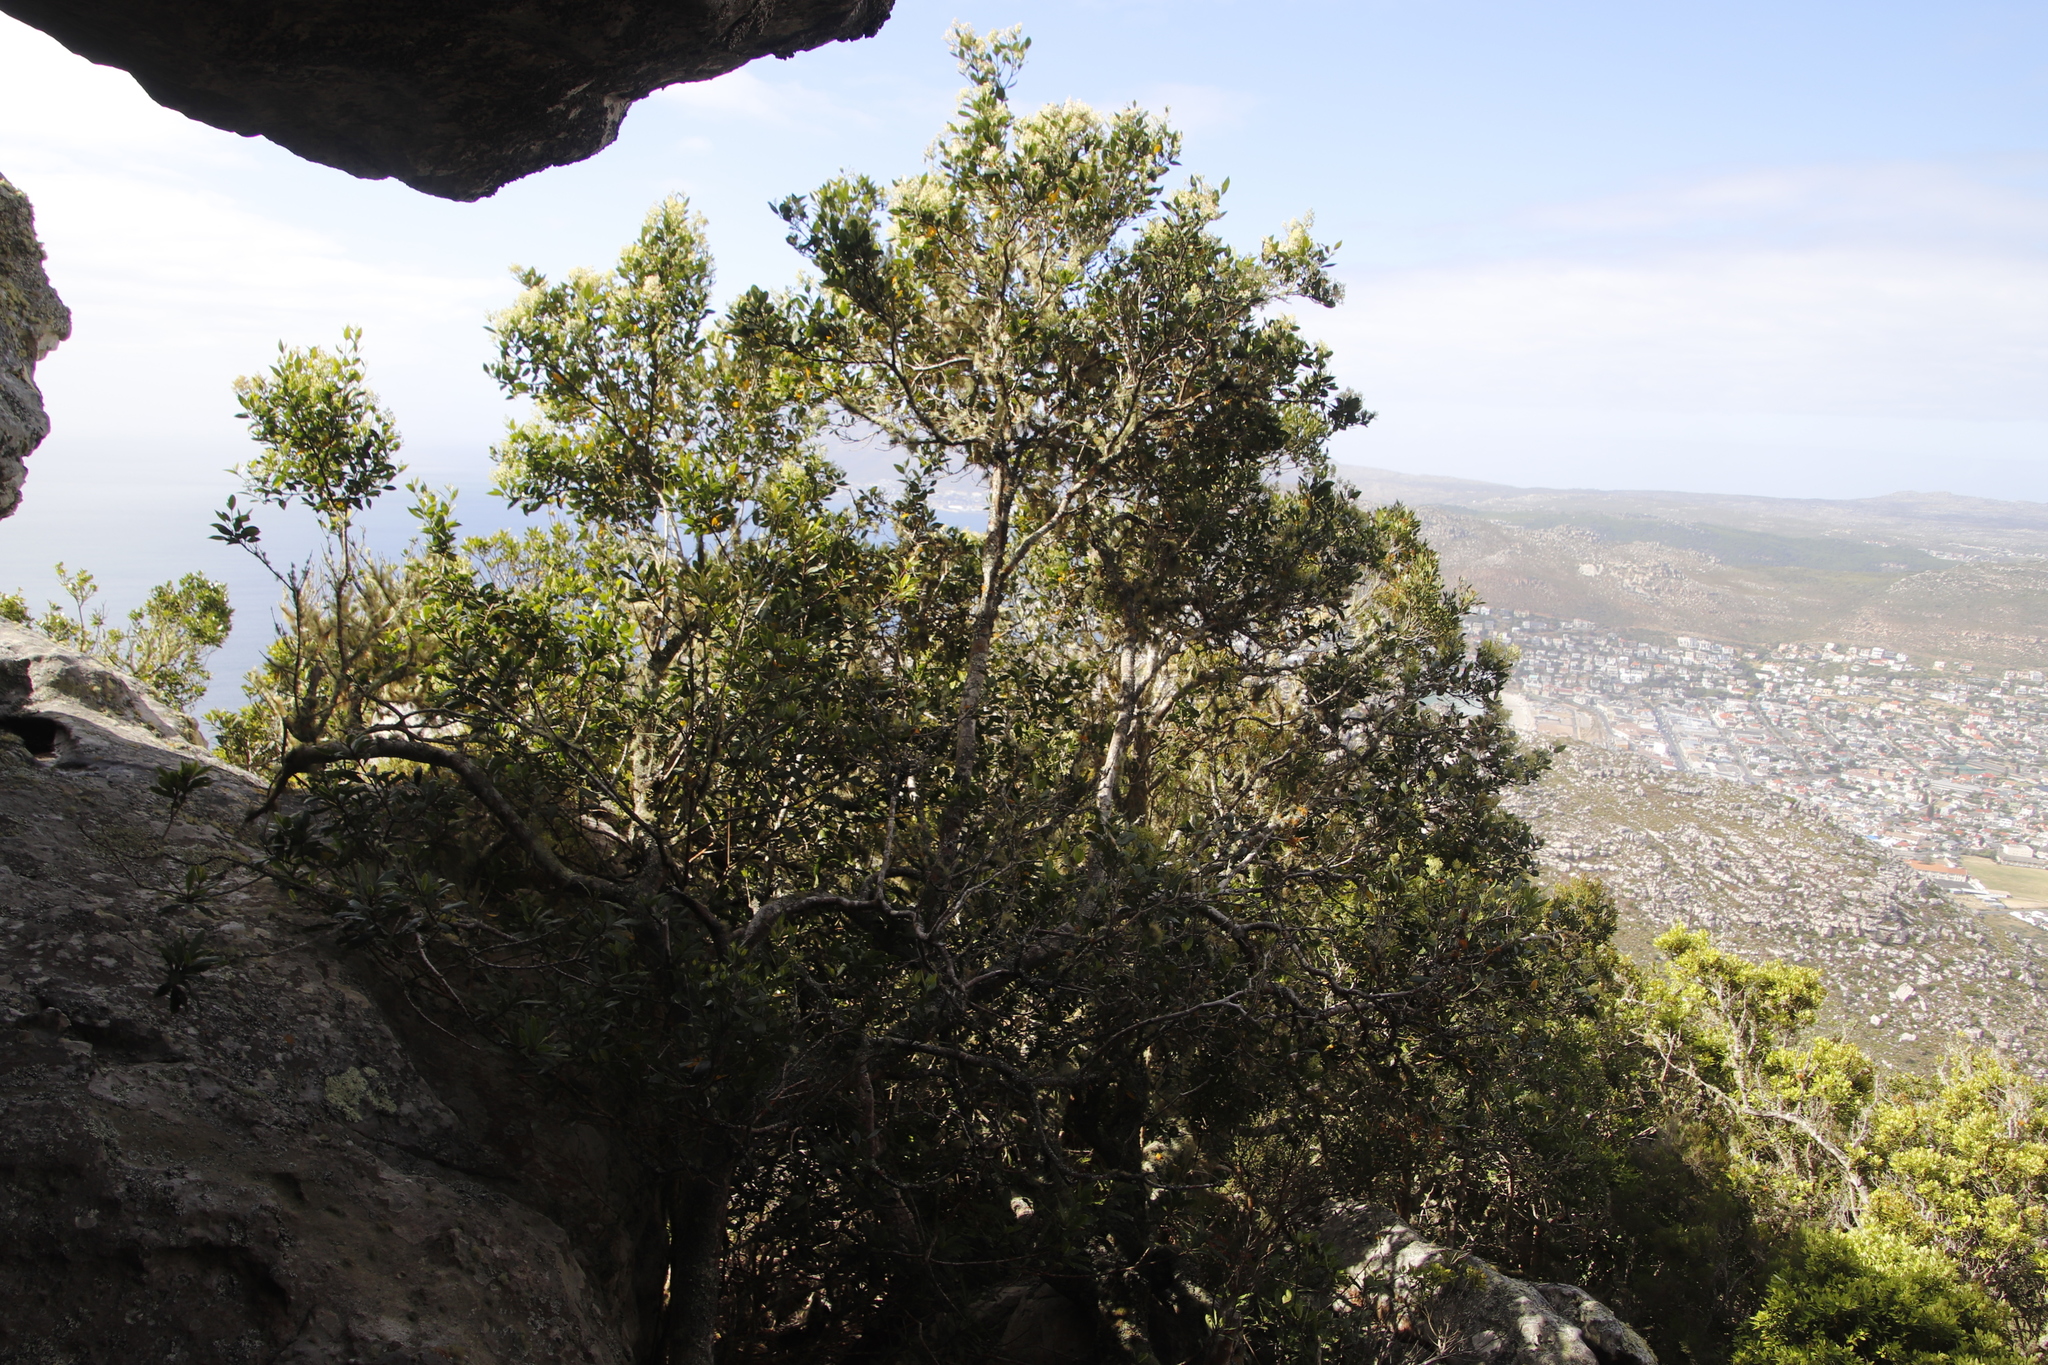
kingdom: Plantae
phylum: Tracheophyta
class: Magnoliopsida
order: Lamiales
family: Oleaceae
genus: Olea
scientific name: Olea capensis
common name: Black ironwood
